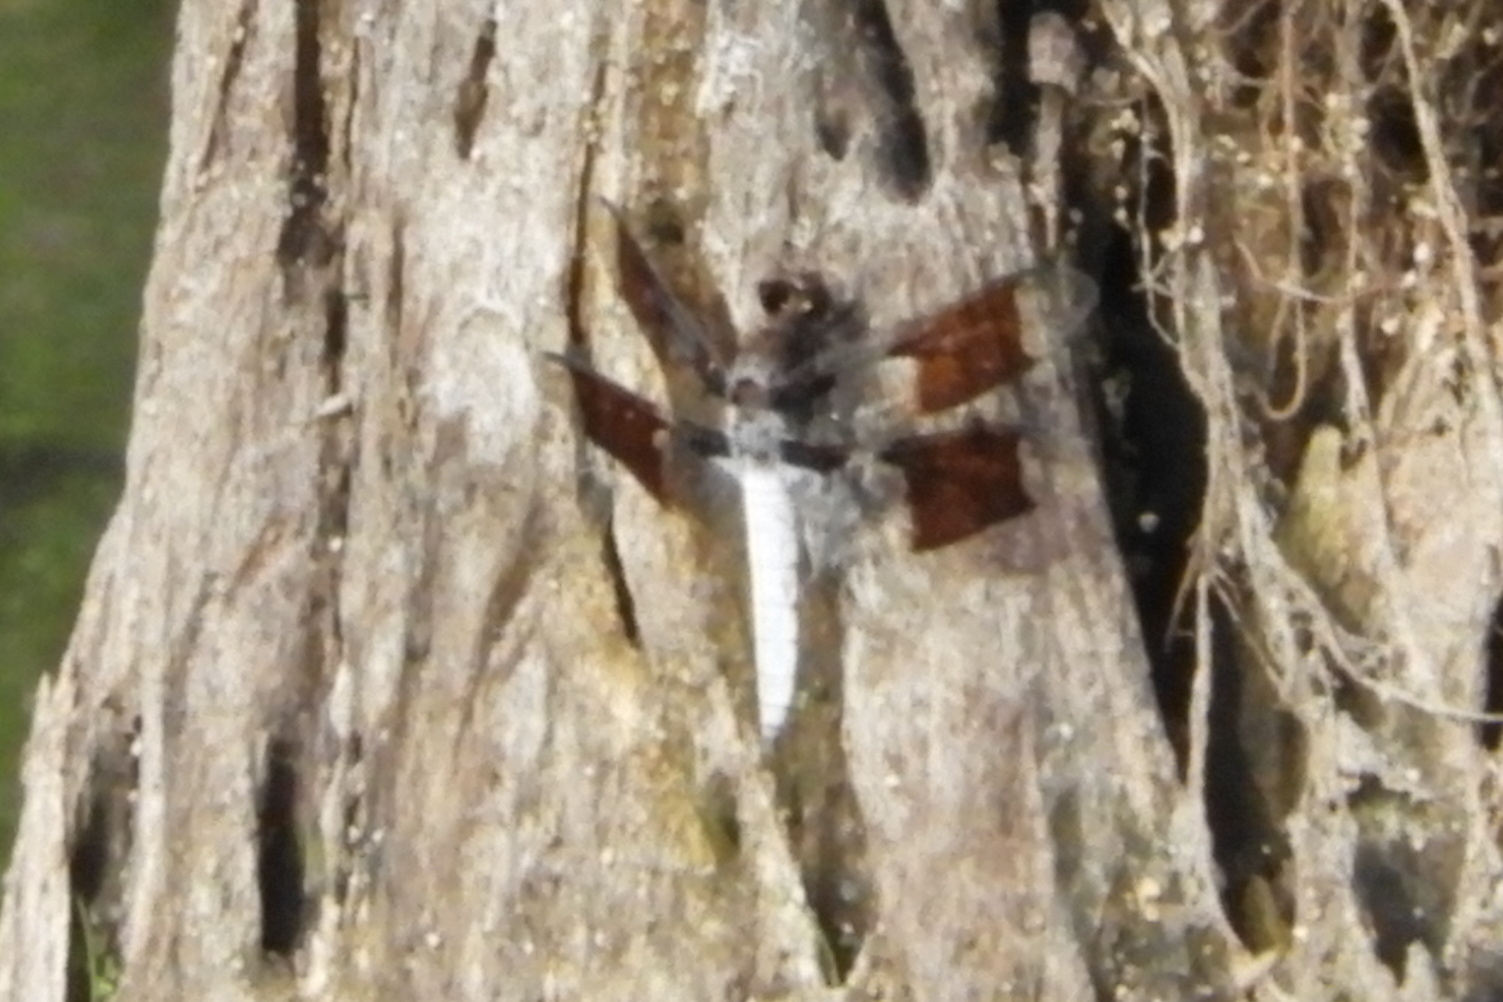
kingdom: Animalia
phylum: Arthropoda
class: Insecta
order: Odonata
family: Libellulidae
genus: Plathemis
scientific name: Plathemis lydia
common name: Common whitetail
